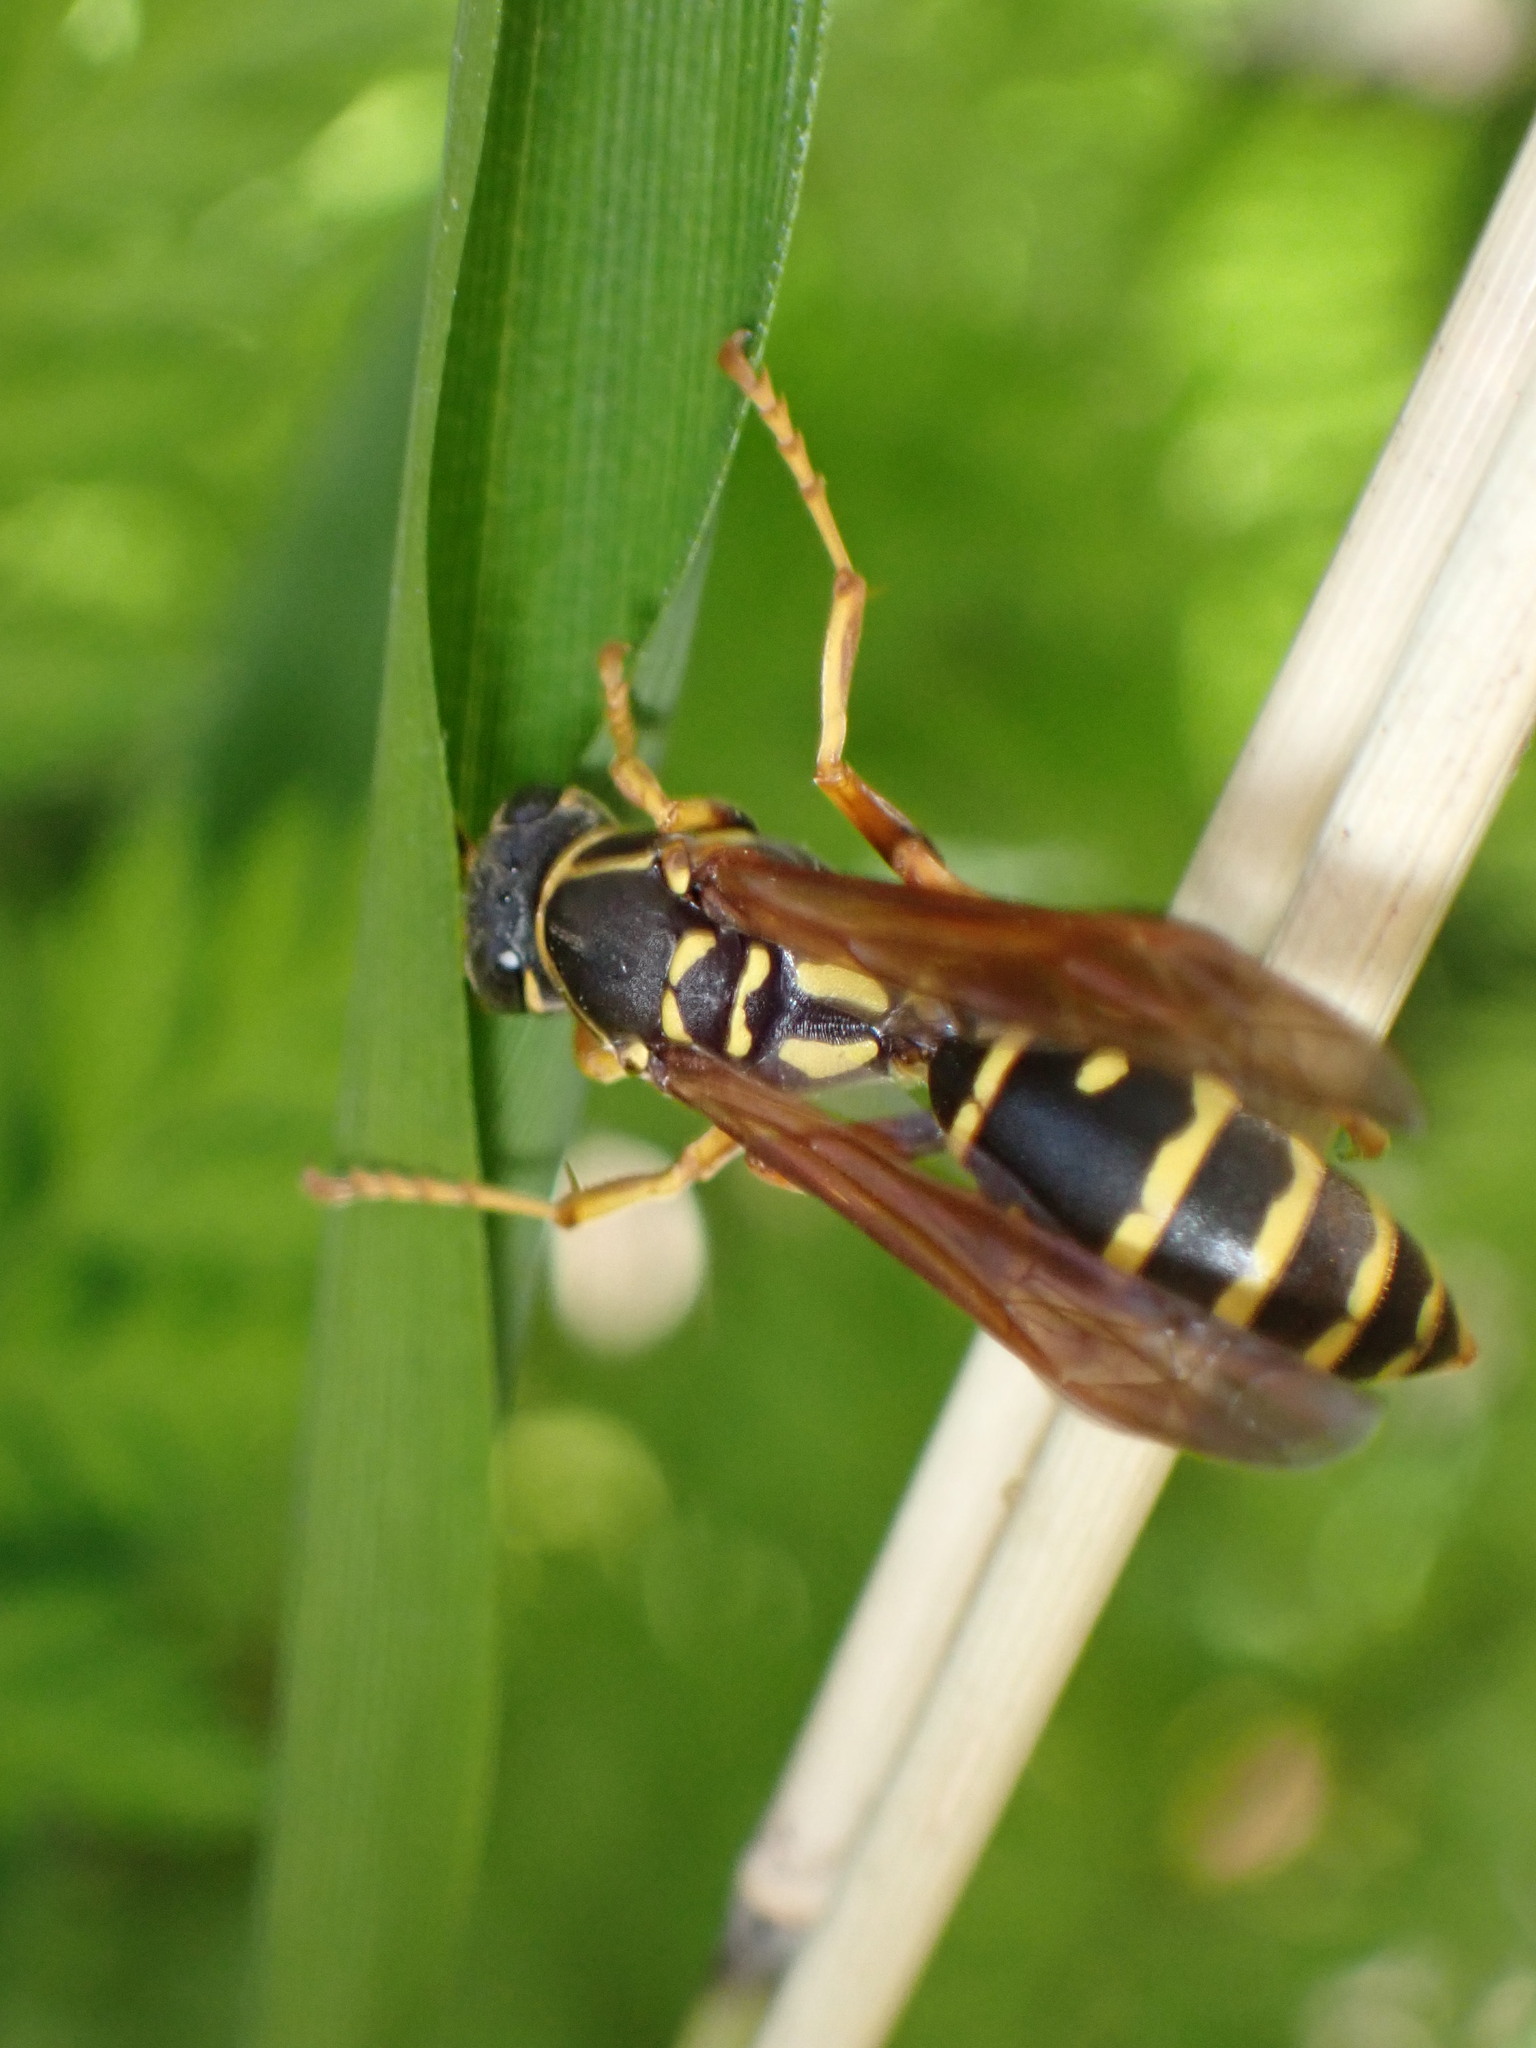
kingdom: Animalia
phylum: Arthropoda
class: Insecta
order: Hymenoptera
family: Eumenidae
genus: Polistes
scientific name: Polistes chinensis
